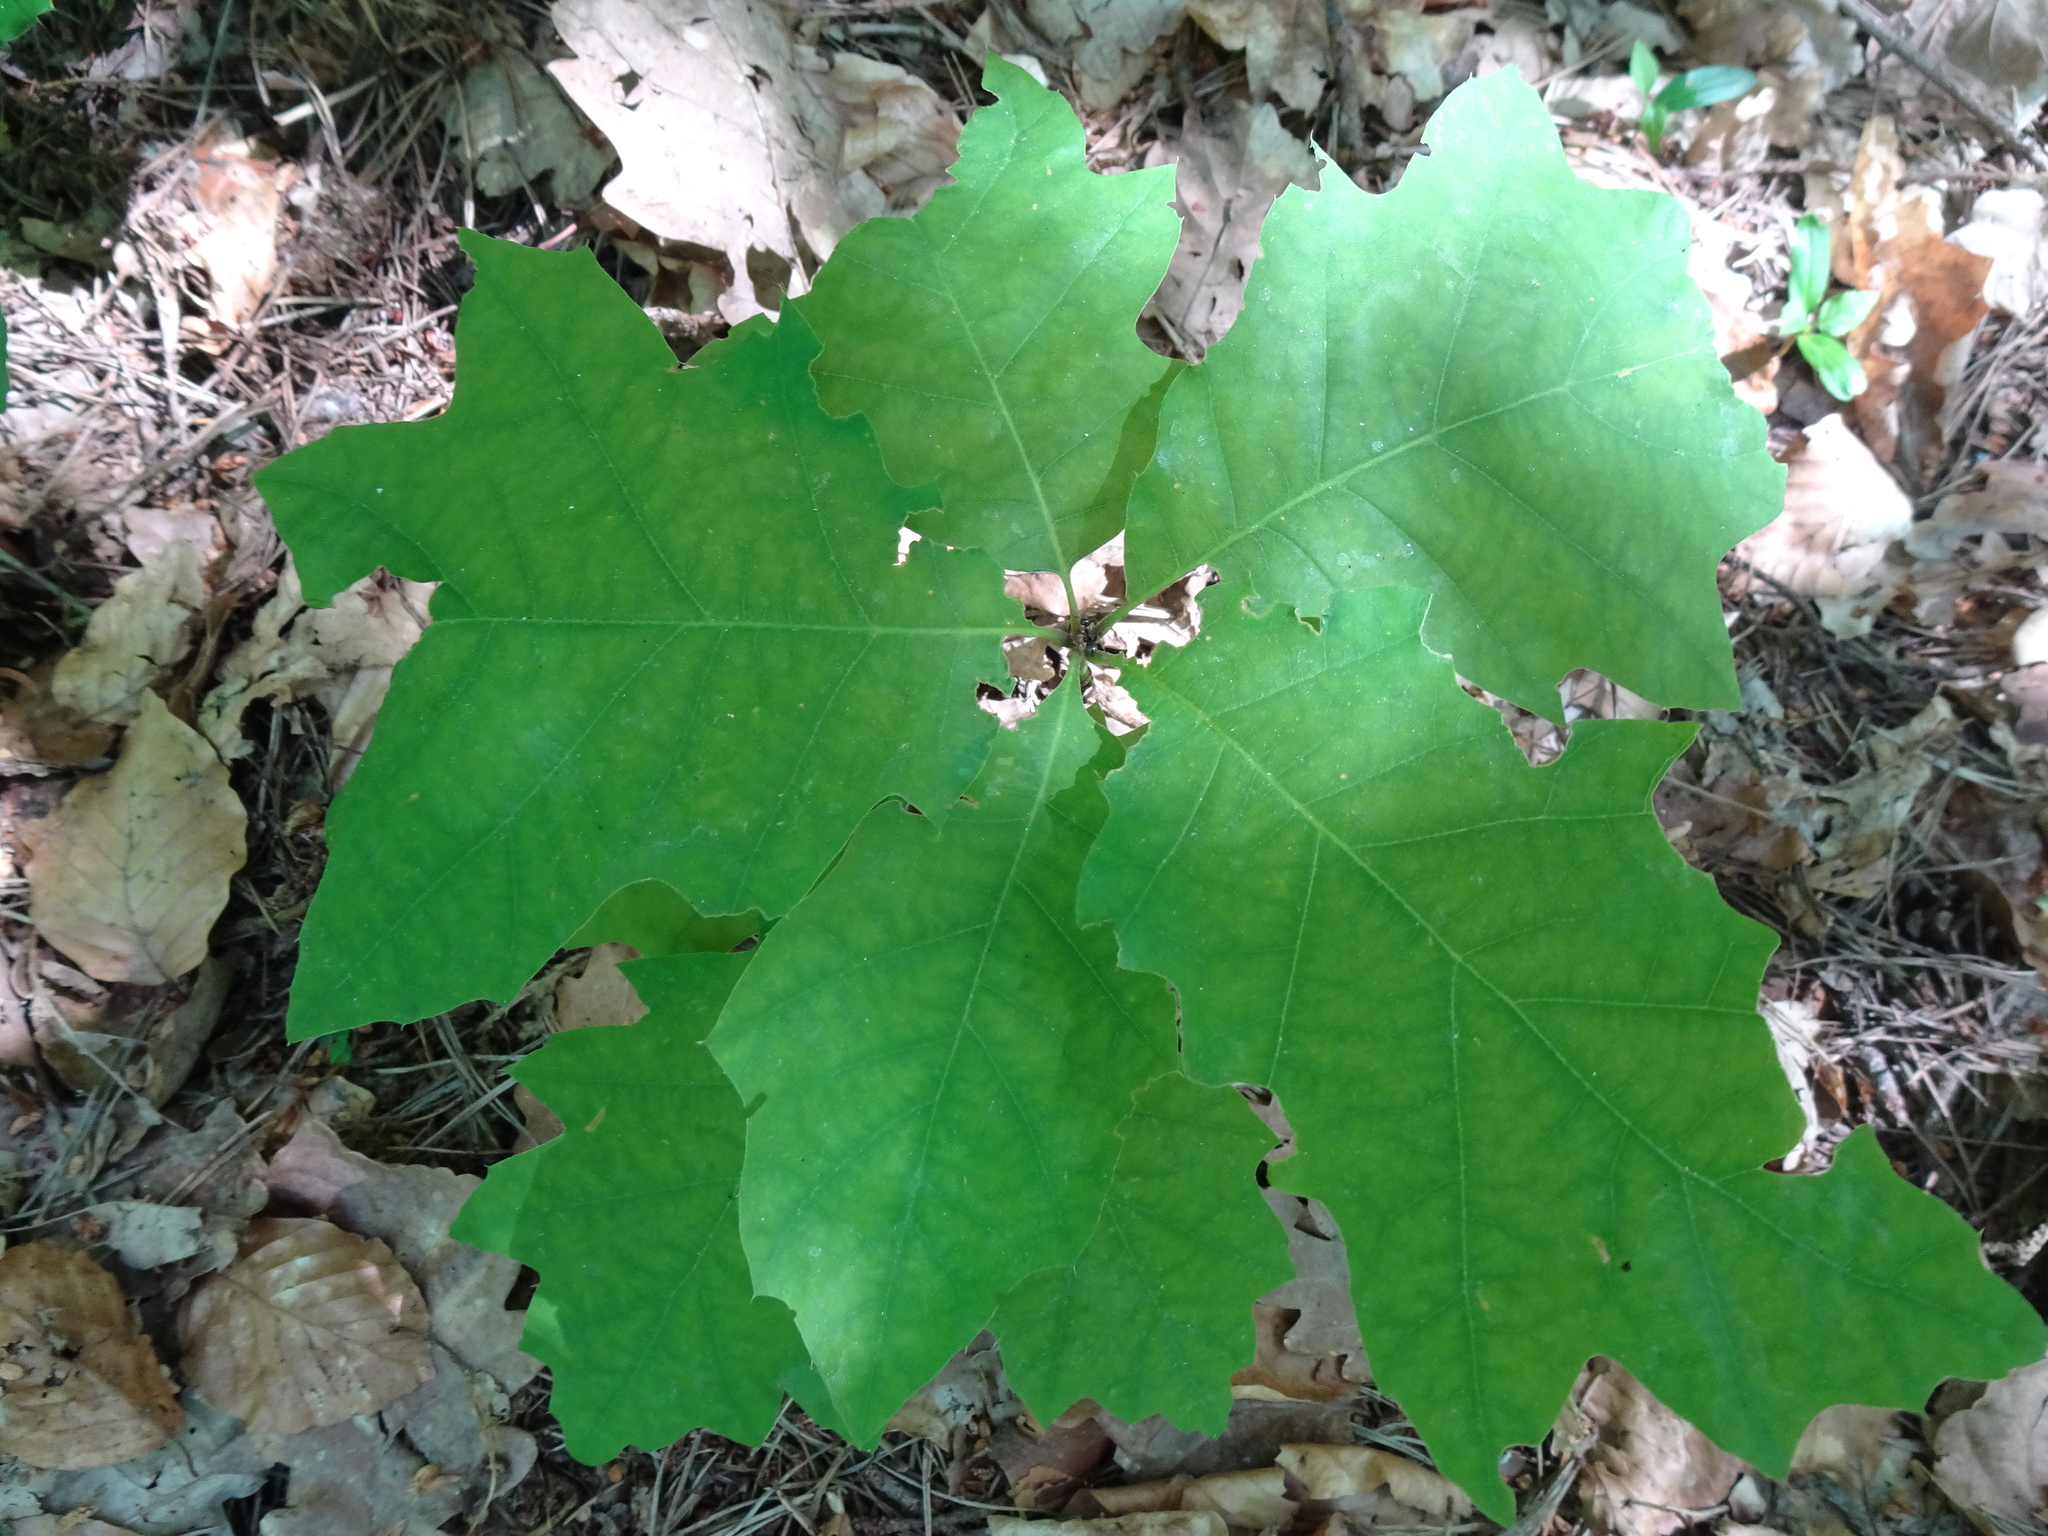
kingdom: Plantae
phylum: Tracheophyta
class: Magnoliopsida
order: Fagales
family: Fagaceae
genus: Quercus
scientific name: Quercus rubra
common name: Red oak
